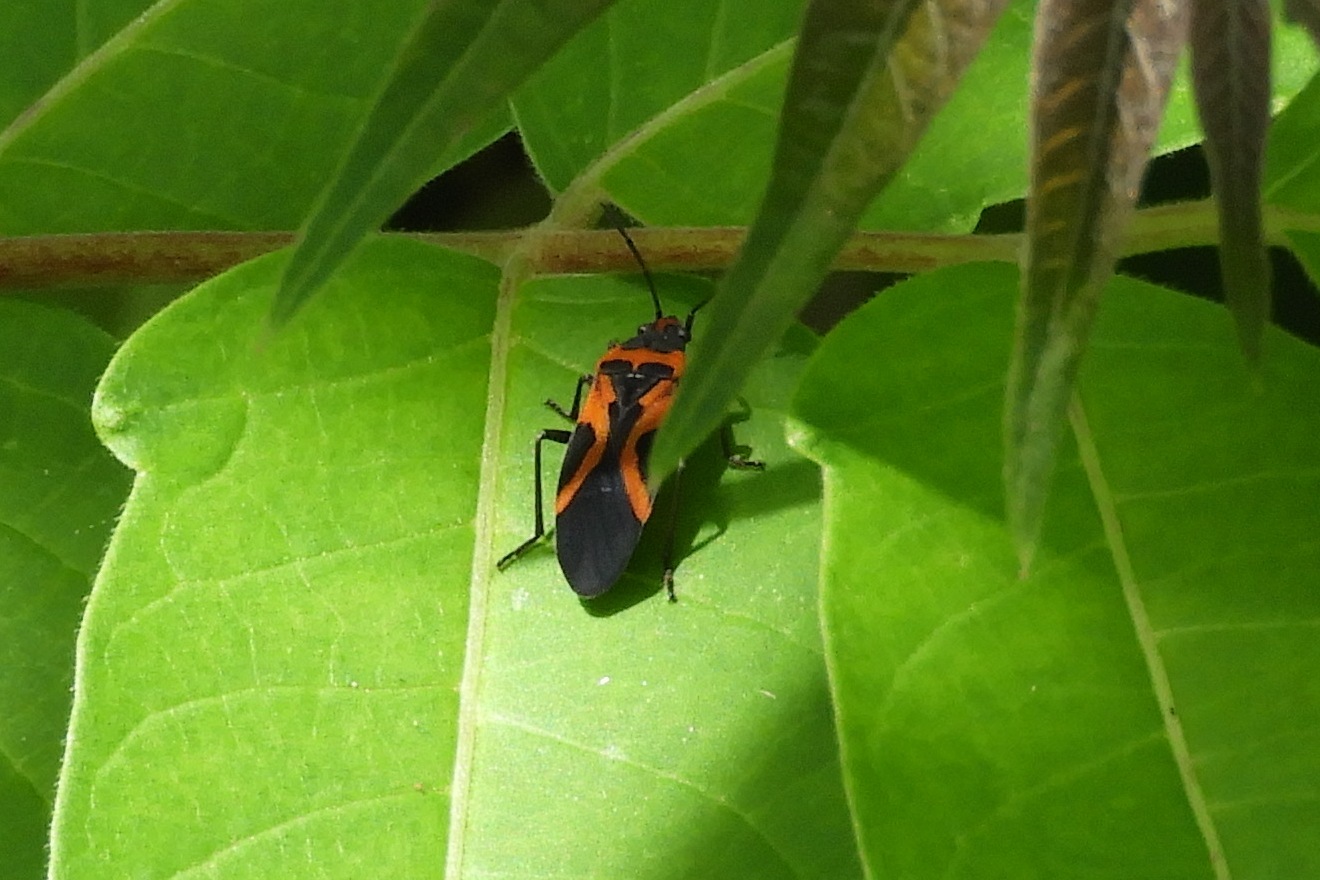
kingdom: Animalia
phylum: Arthropoda
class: Insecta
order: Hemiptera
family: Lygaeidae
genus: Lygaeus
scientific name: Lygaeus turcicus
